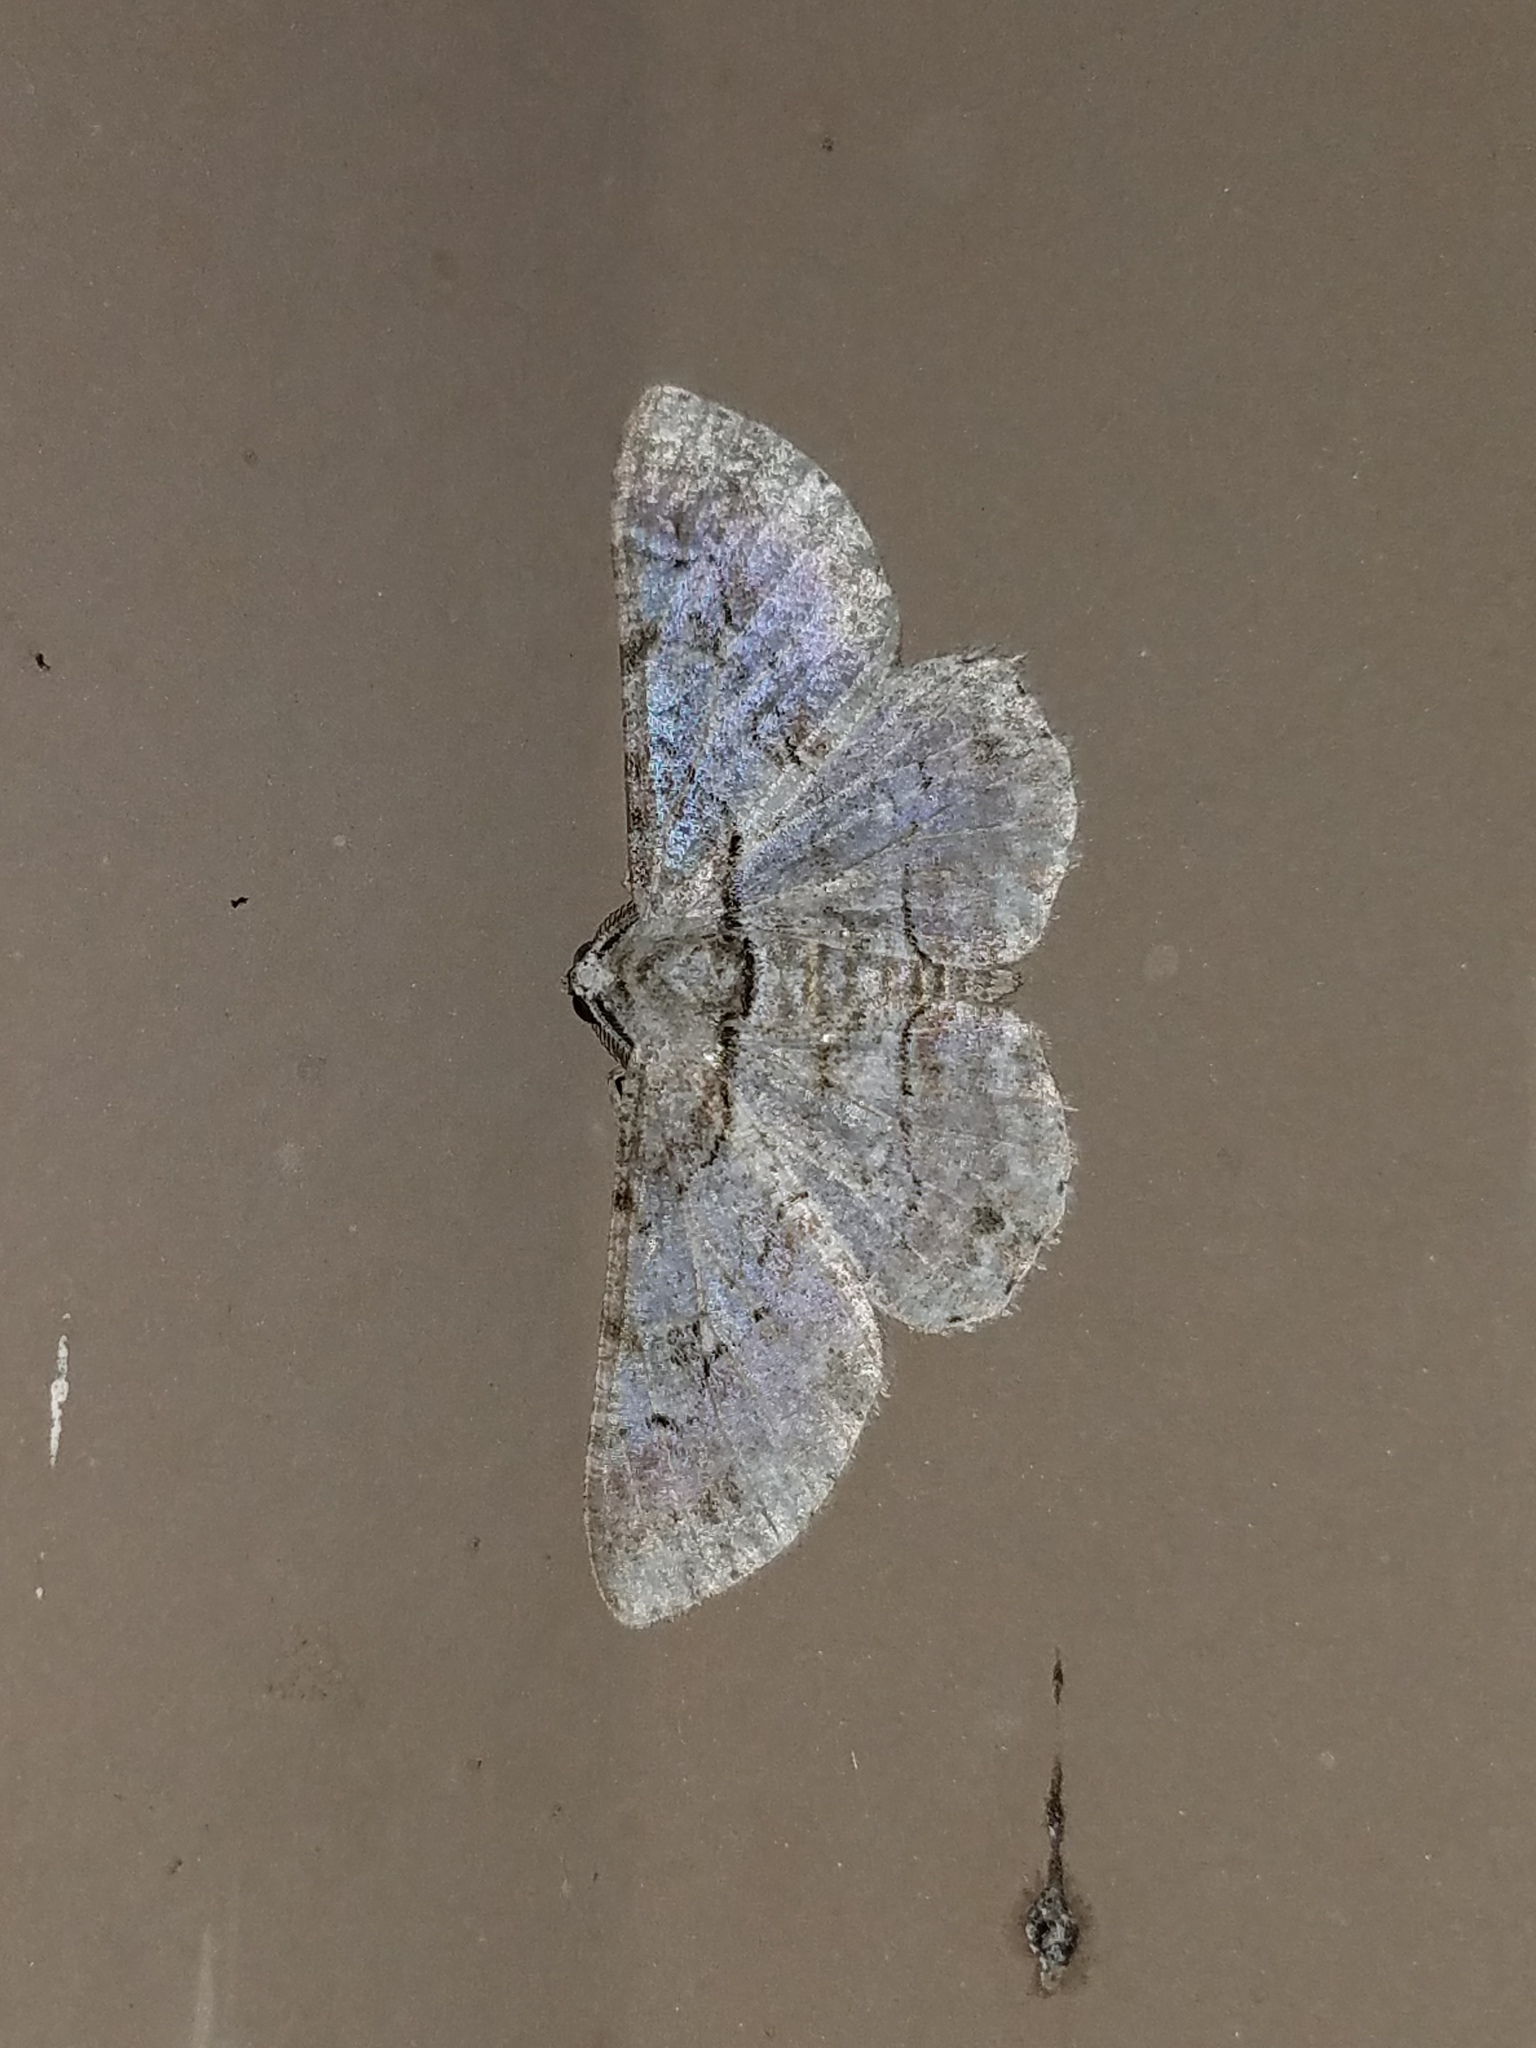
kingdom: Animalia
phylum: Arthropoda
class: Insecta
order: Lepidoptera
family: Geometridae
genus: Iridopsis
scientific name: Iridopsis perfectaria
